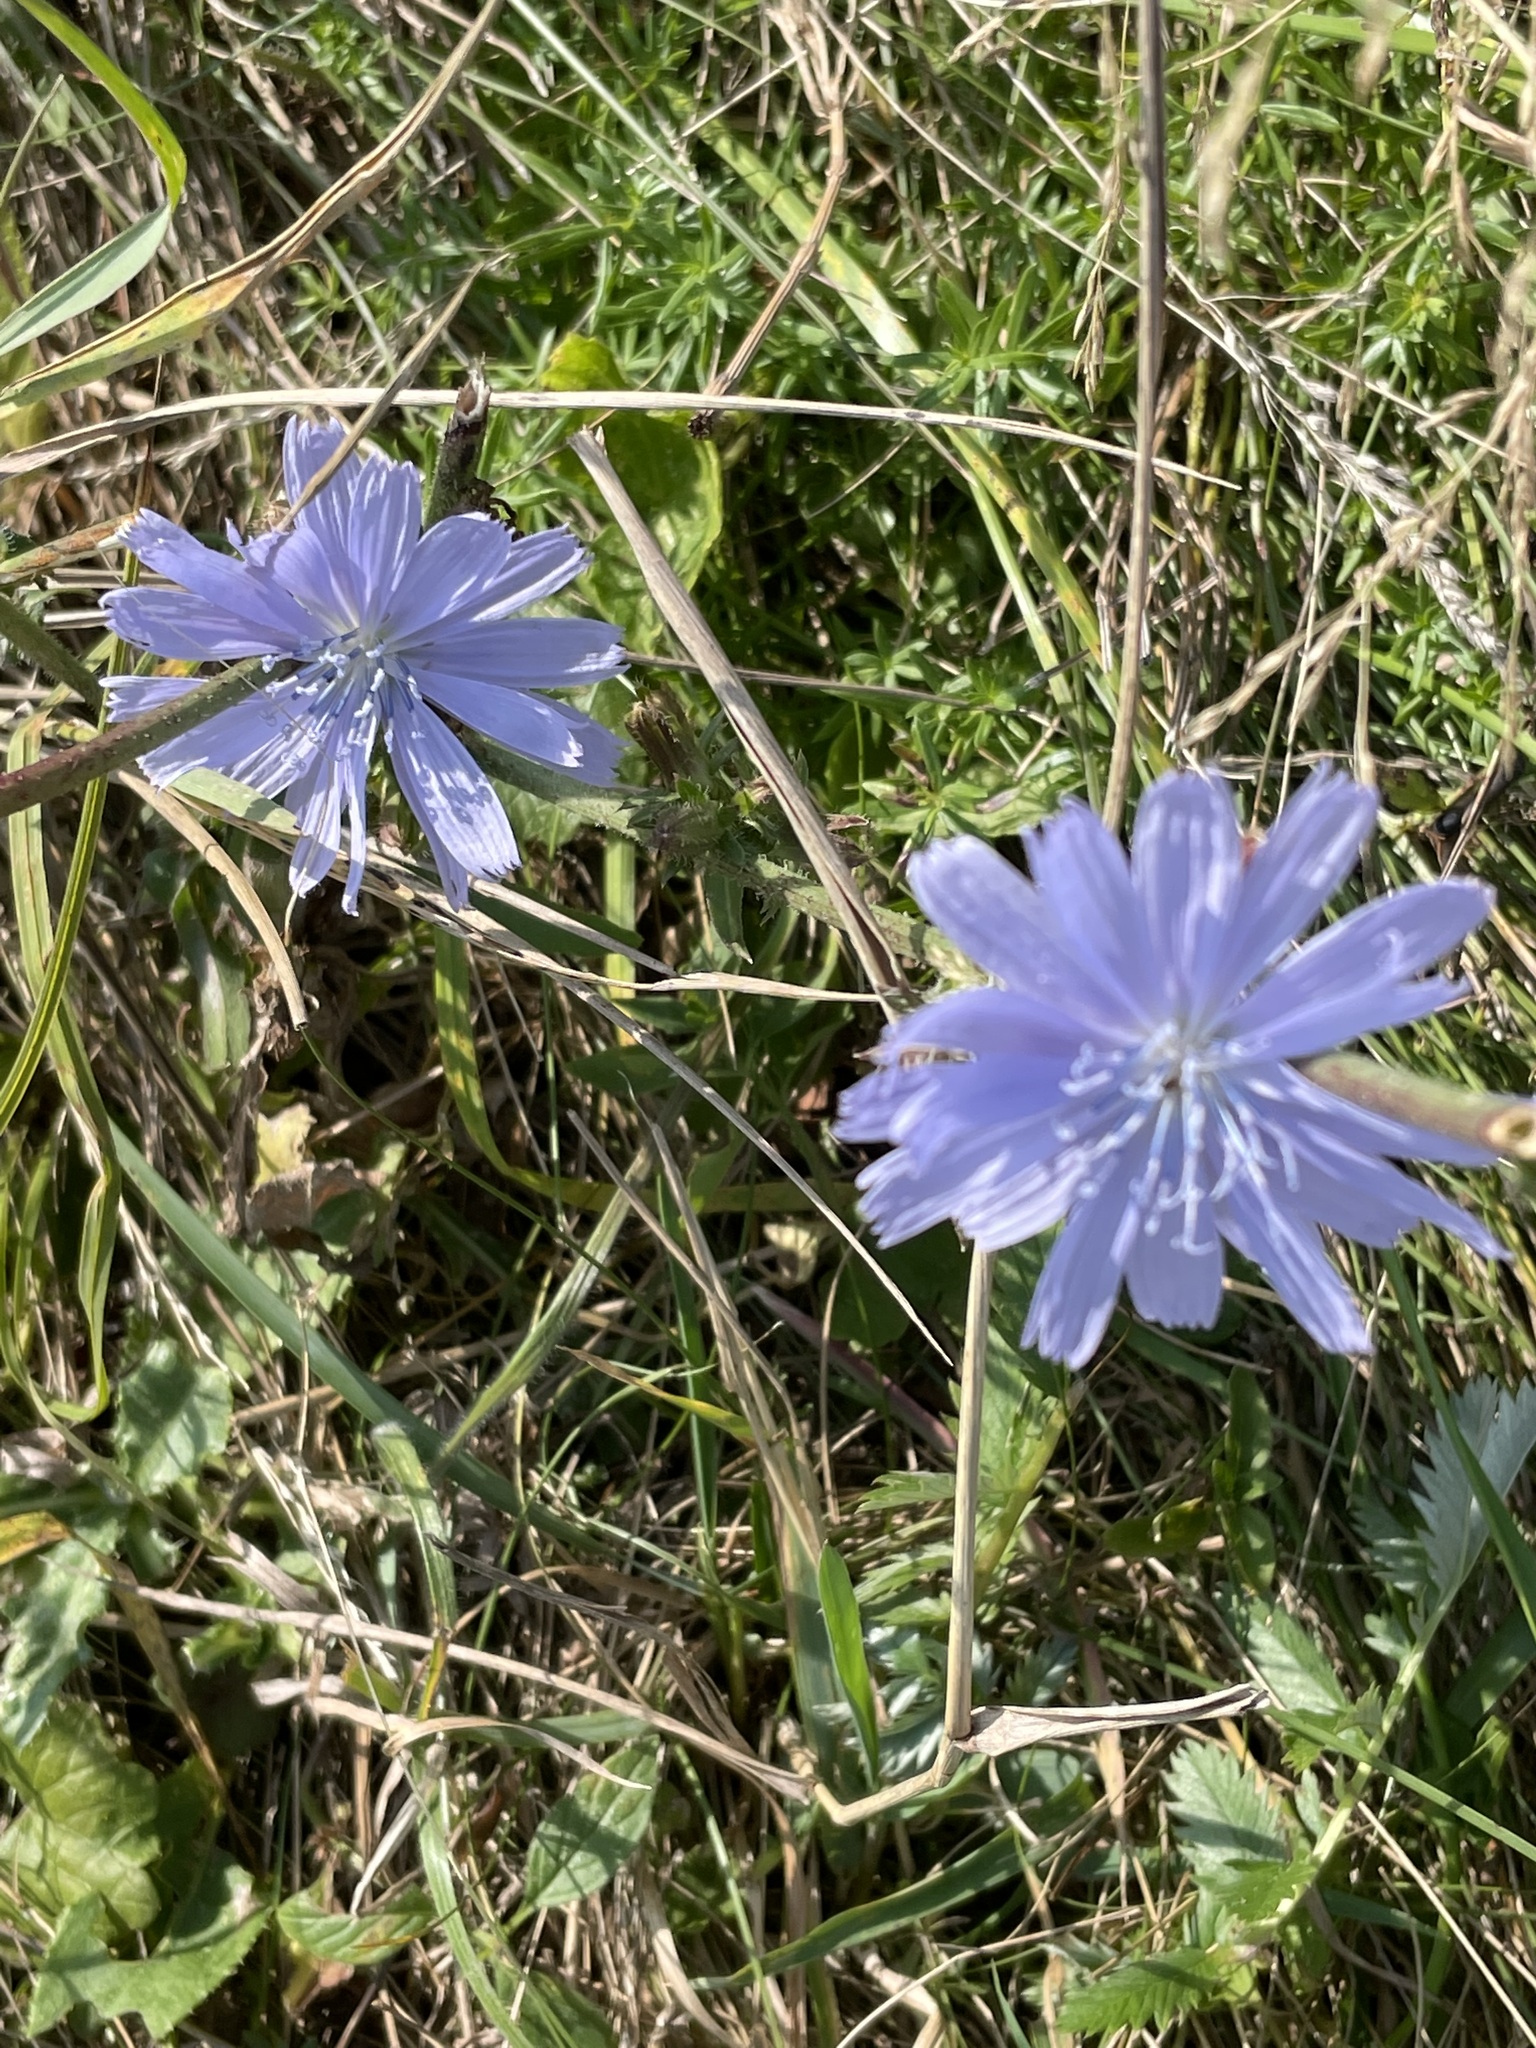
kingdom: Plantae
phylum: Tracheophyta
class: Magnoliopsida
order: Asterales
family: Asteraceae
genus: Cichorium
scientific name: Cichorium intybus
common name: Chicory
